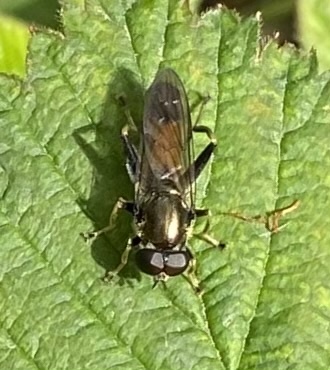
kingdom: Animalia
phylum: Arthropoda
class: Insecta
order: Diptera
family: Syrphidae
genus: Xylota
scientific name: Xylota segnis
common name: Brown-toed forest fly
